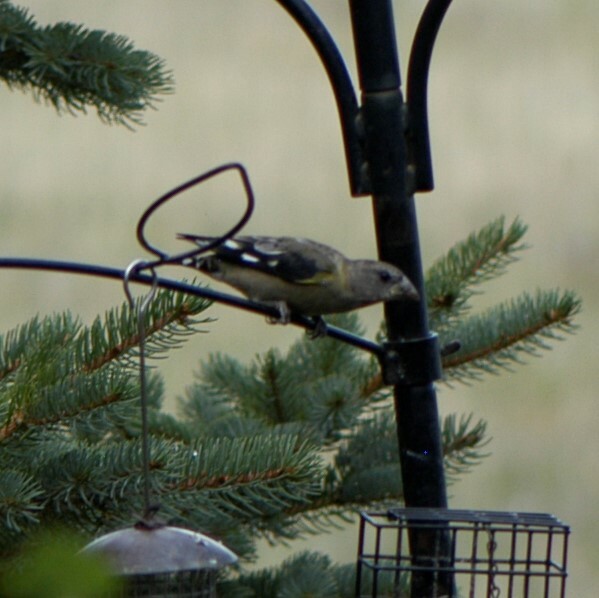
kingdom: Animalia
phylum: Chordata
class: Aves
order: Passeriformes
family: Fringillidae
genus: Hesperiphona
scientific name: Hesperiphona vespertina
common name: Evening grosbeak
